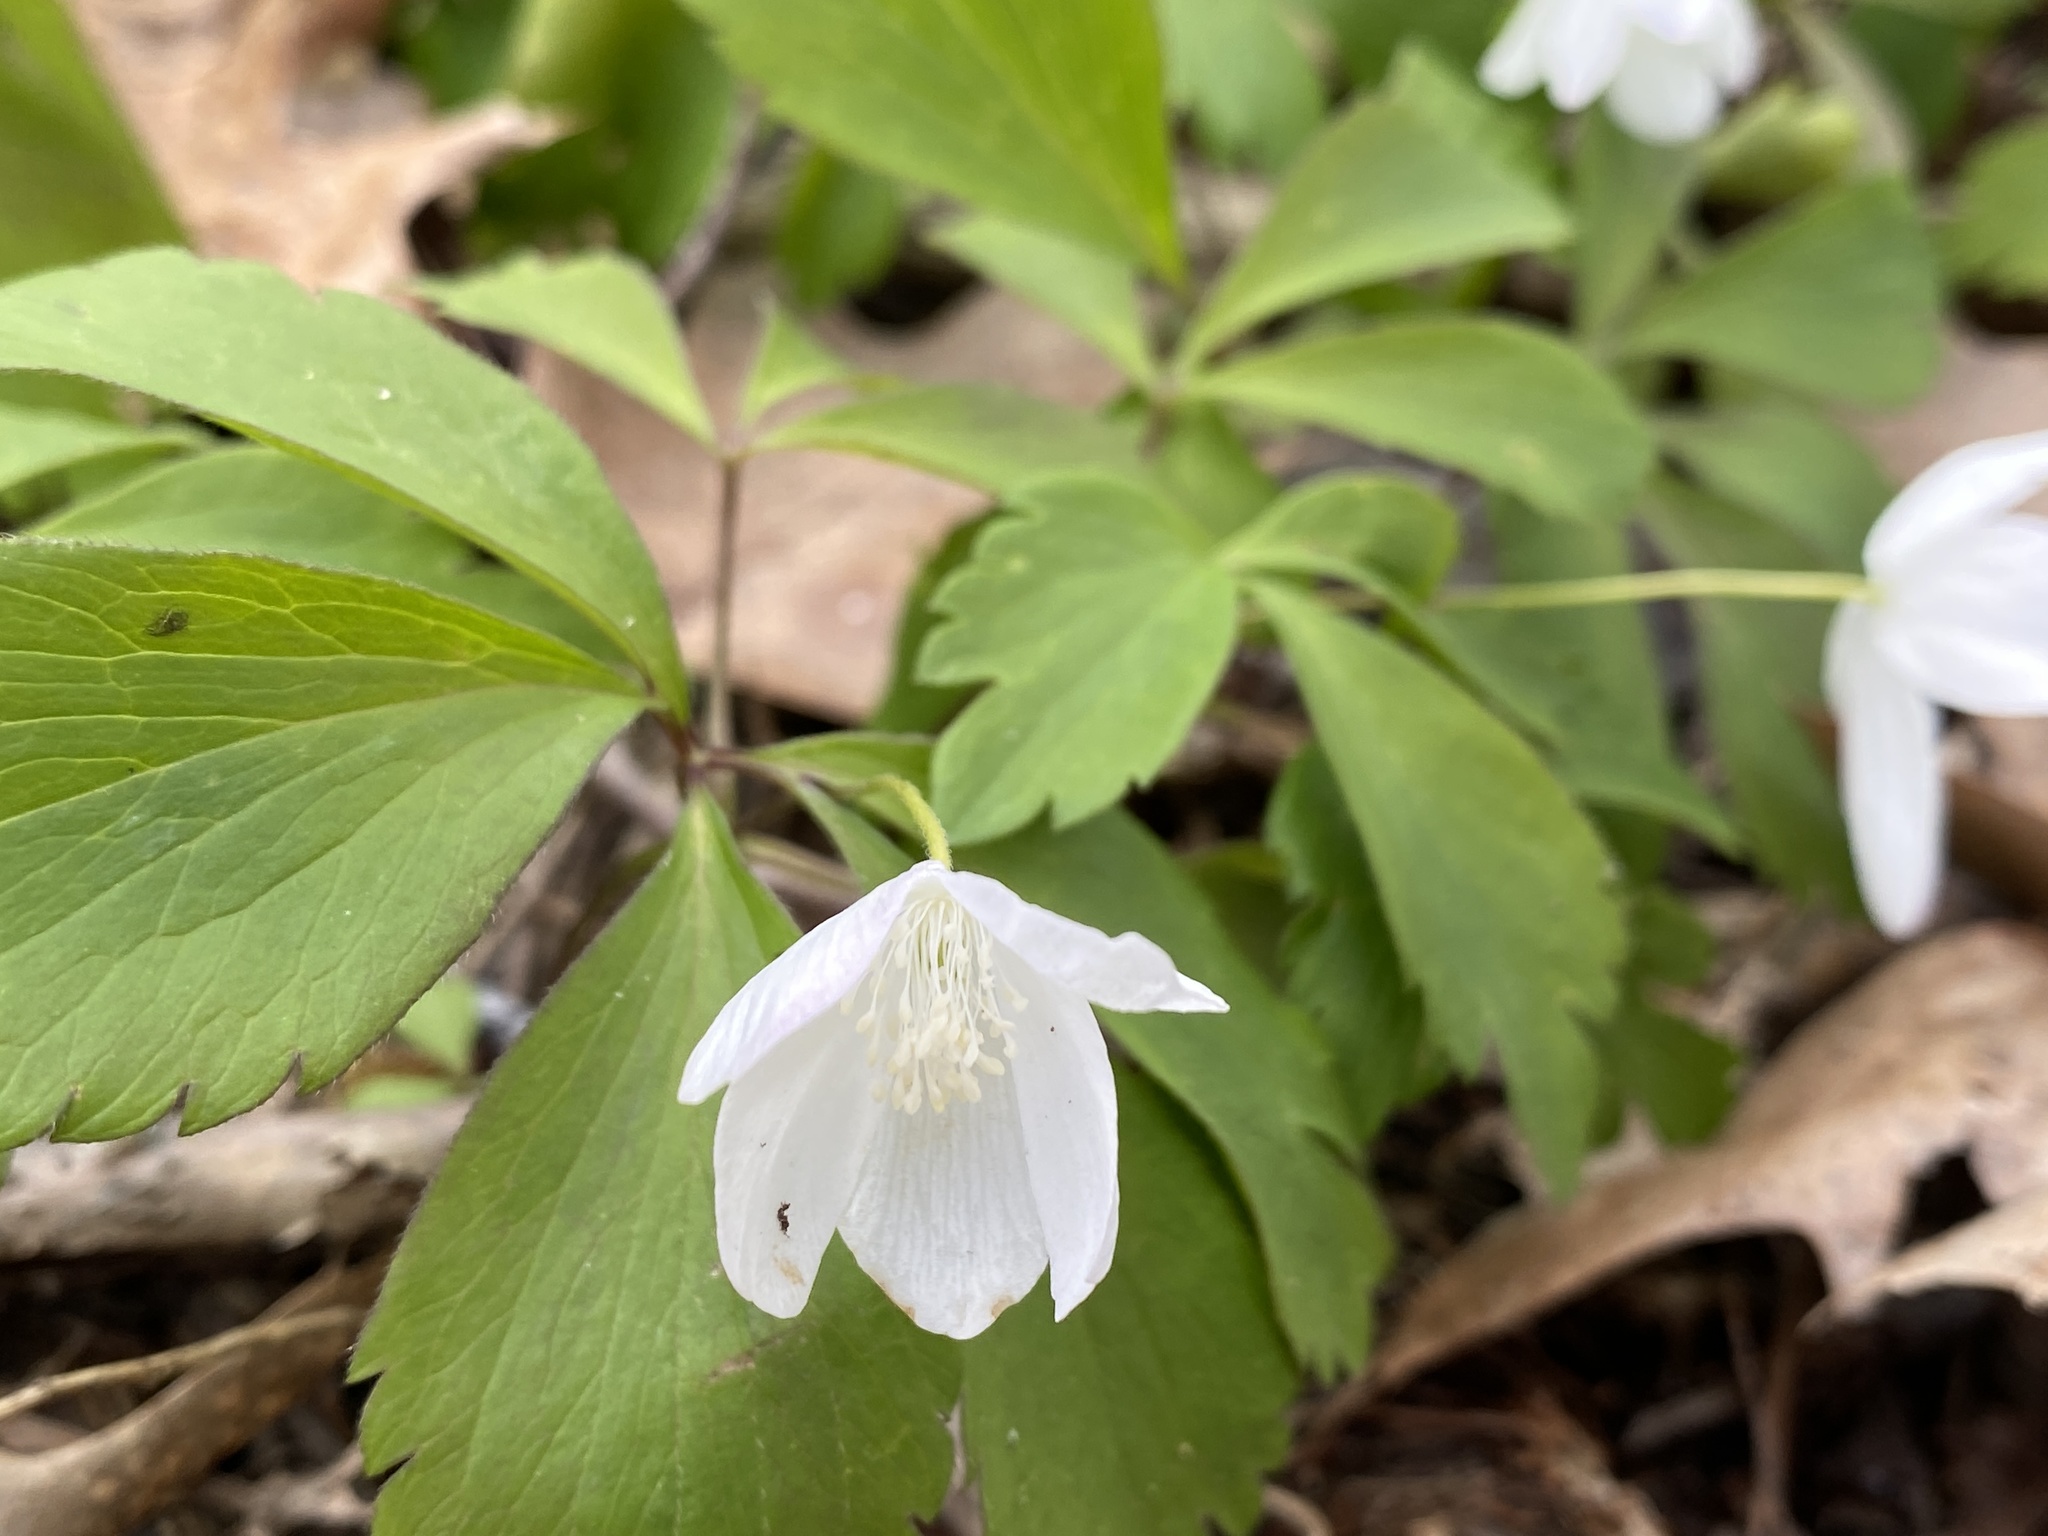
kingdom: Plantae
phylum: Tracheophyta
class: Magnoliopsida
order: Ranunculales
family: Ranunculaceae
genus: Anemone
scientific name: Anemone quinquefolia
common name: Wood anemone
